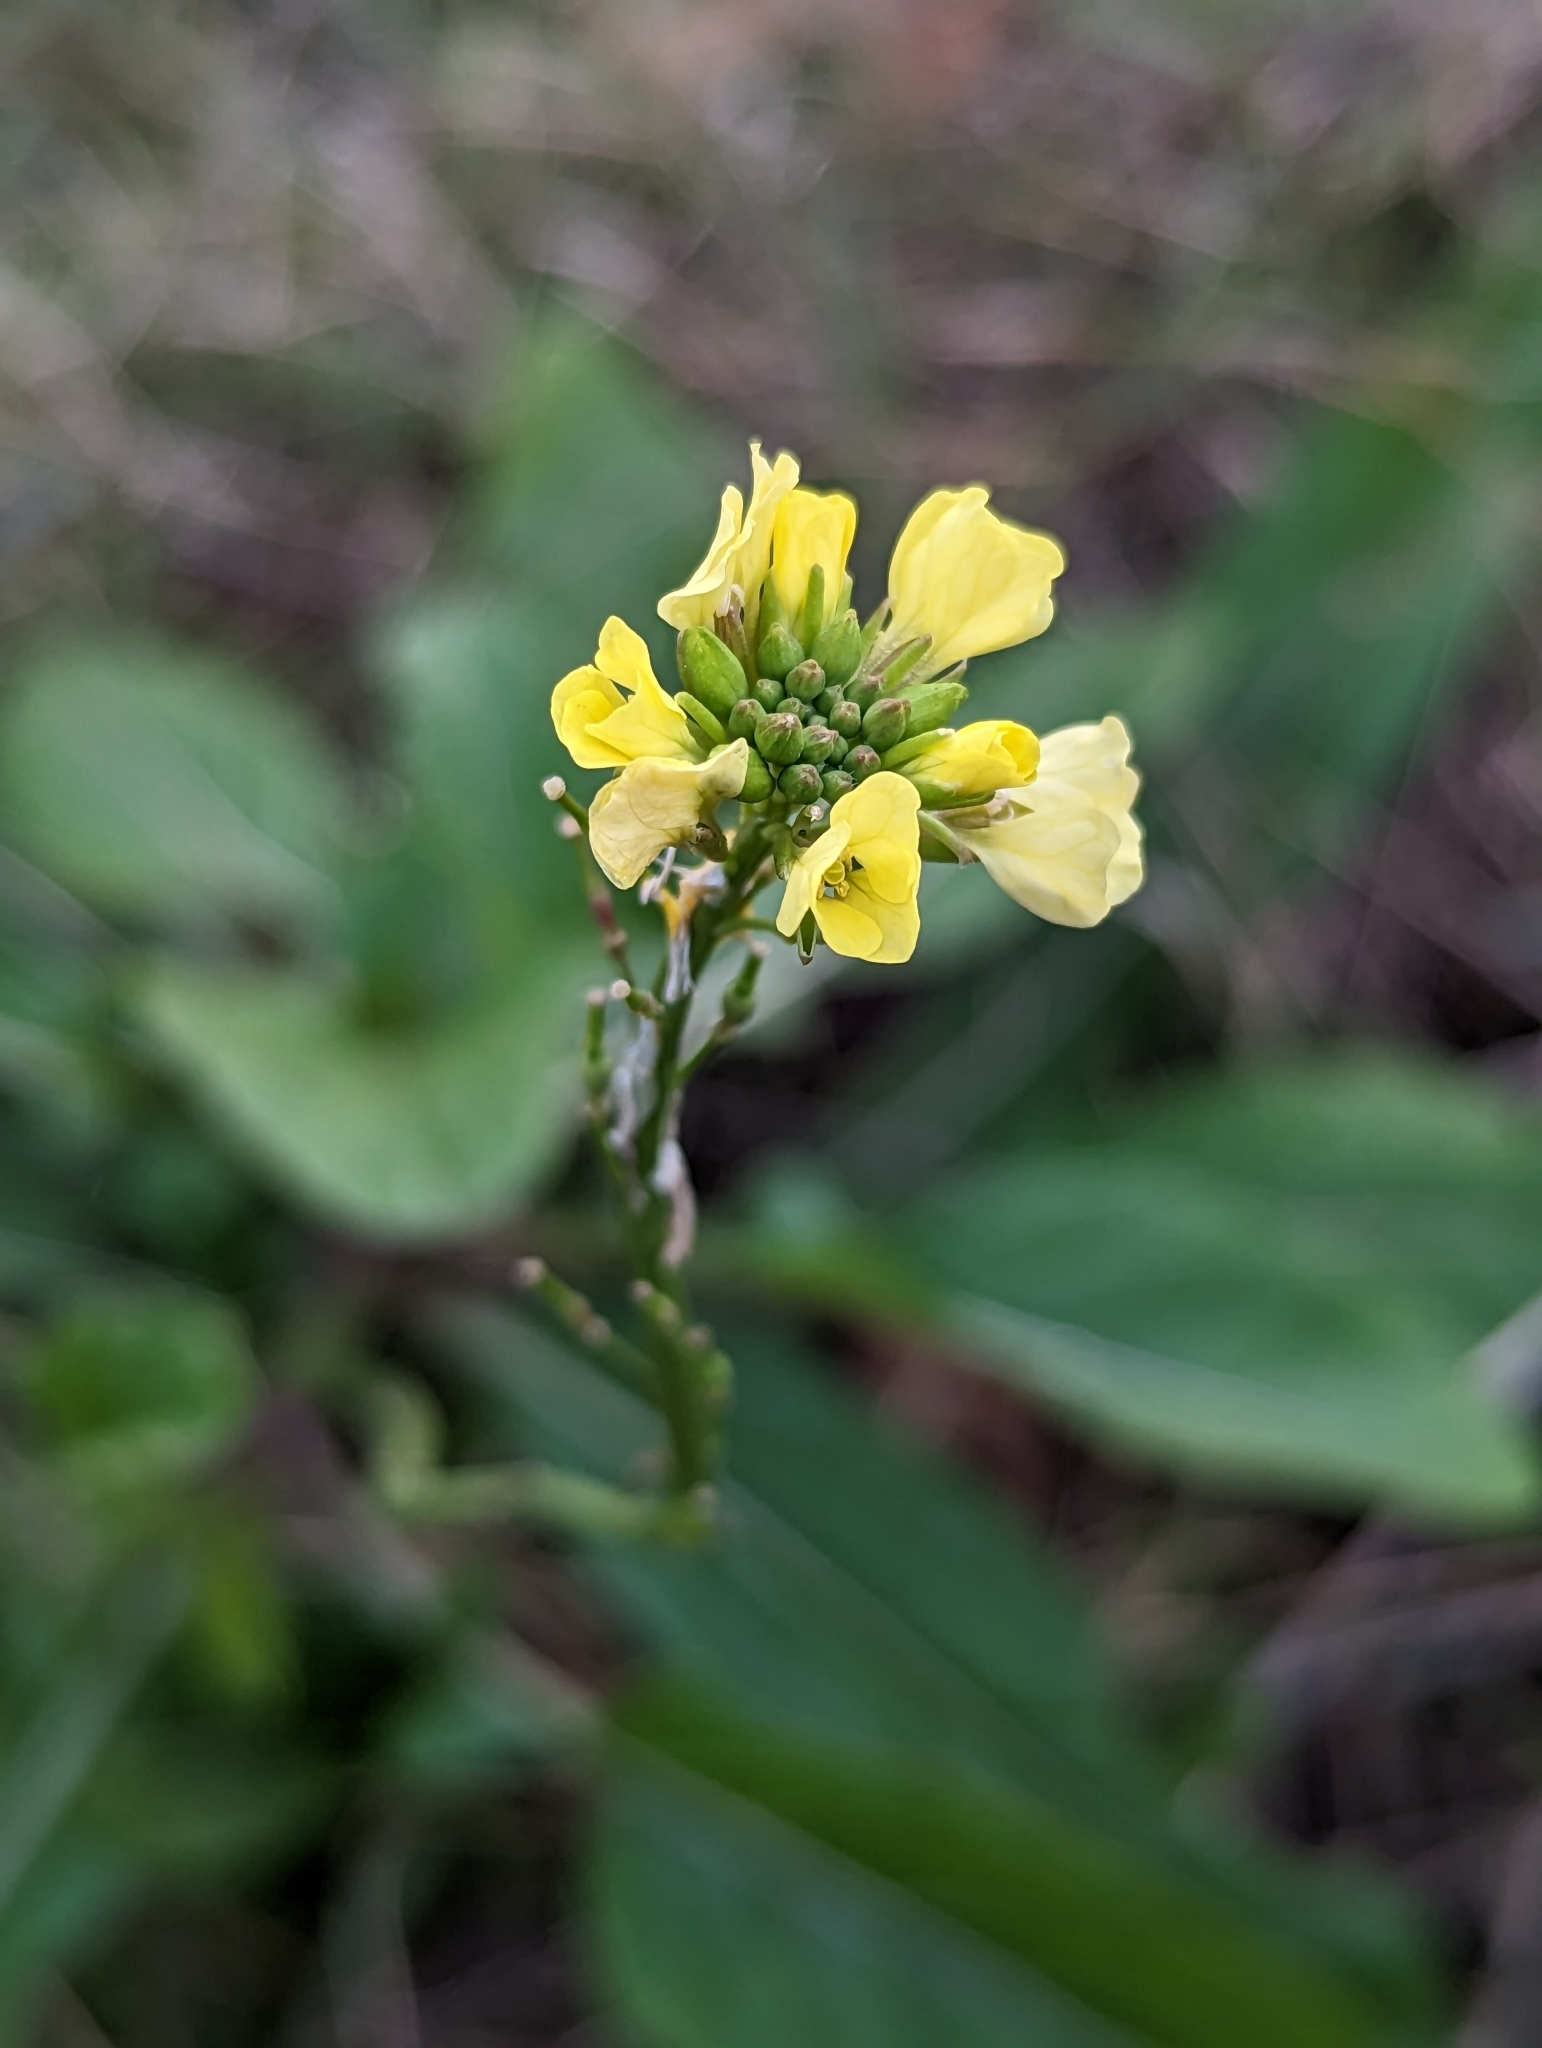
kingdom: Plantae
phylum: Tracheophyta
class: Magnoliopsida
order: Brassicales
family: Brassicaceae
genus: Rapistrum
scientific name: Rapistrum rugosum
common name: Annual bastardcabbage
